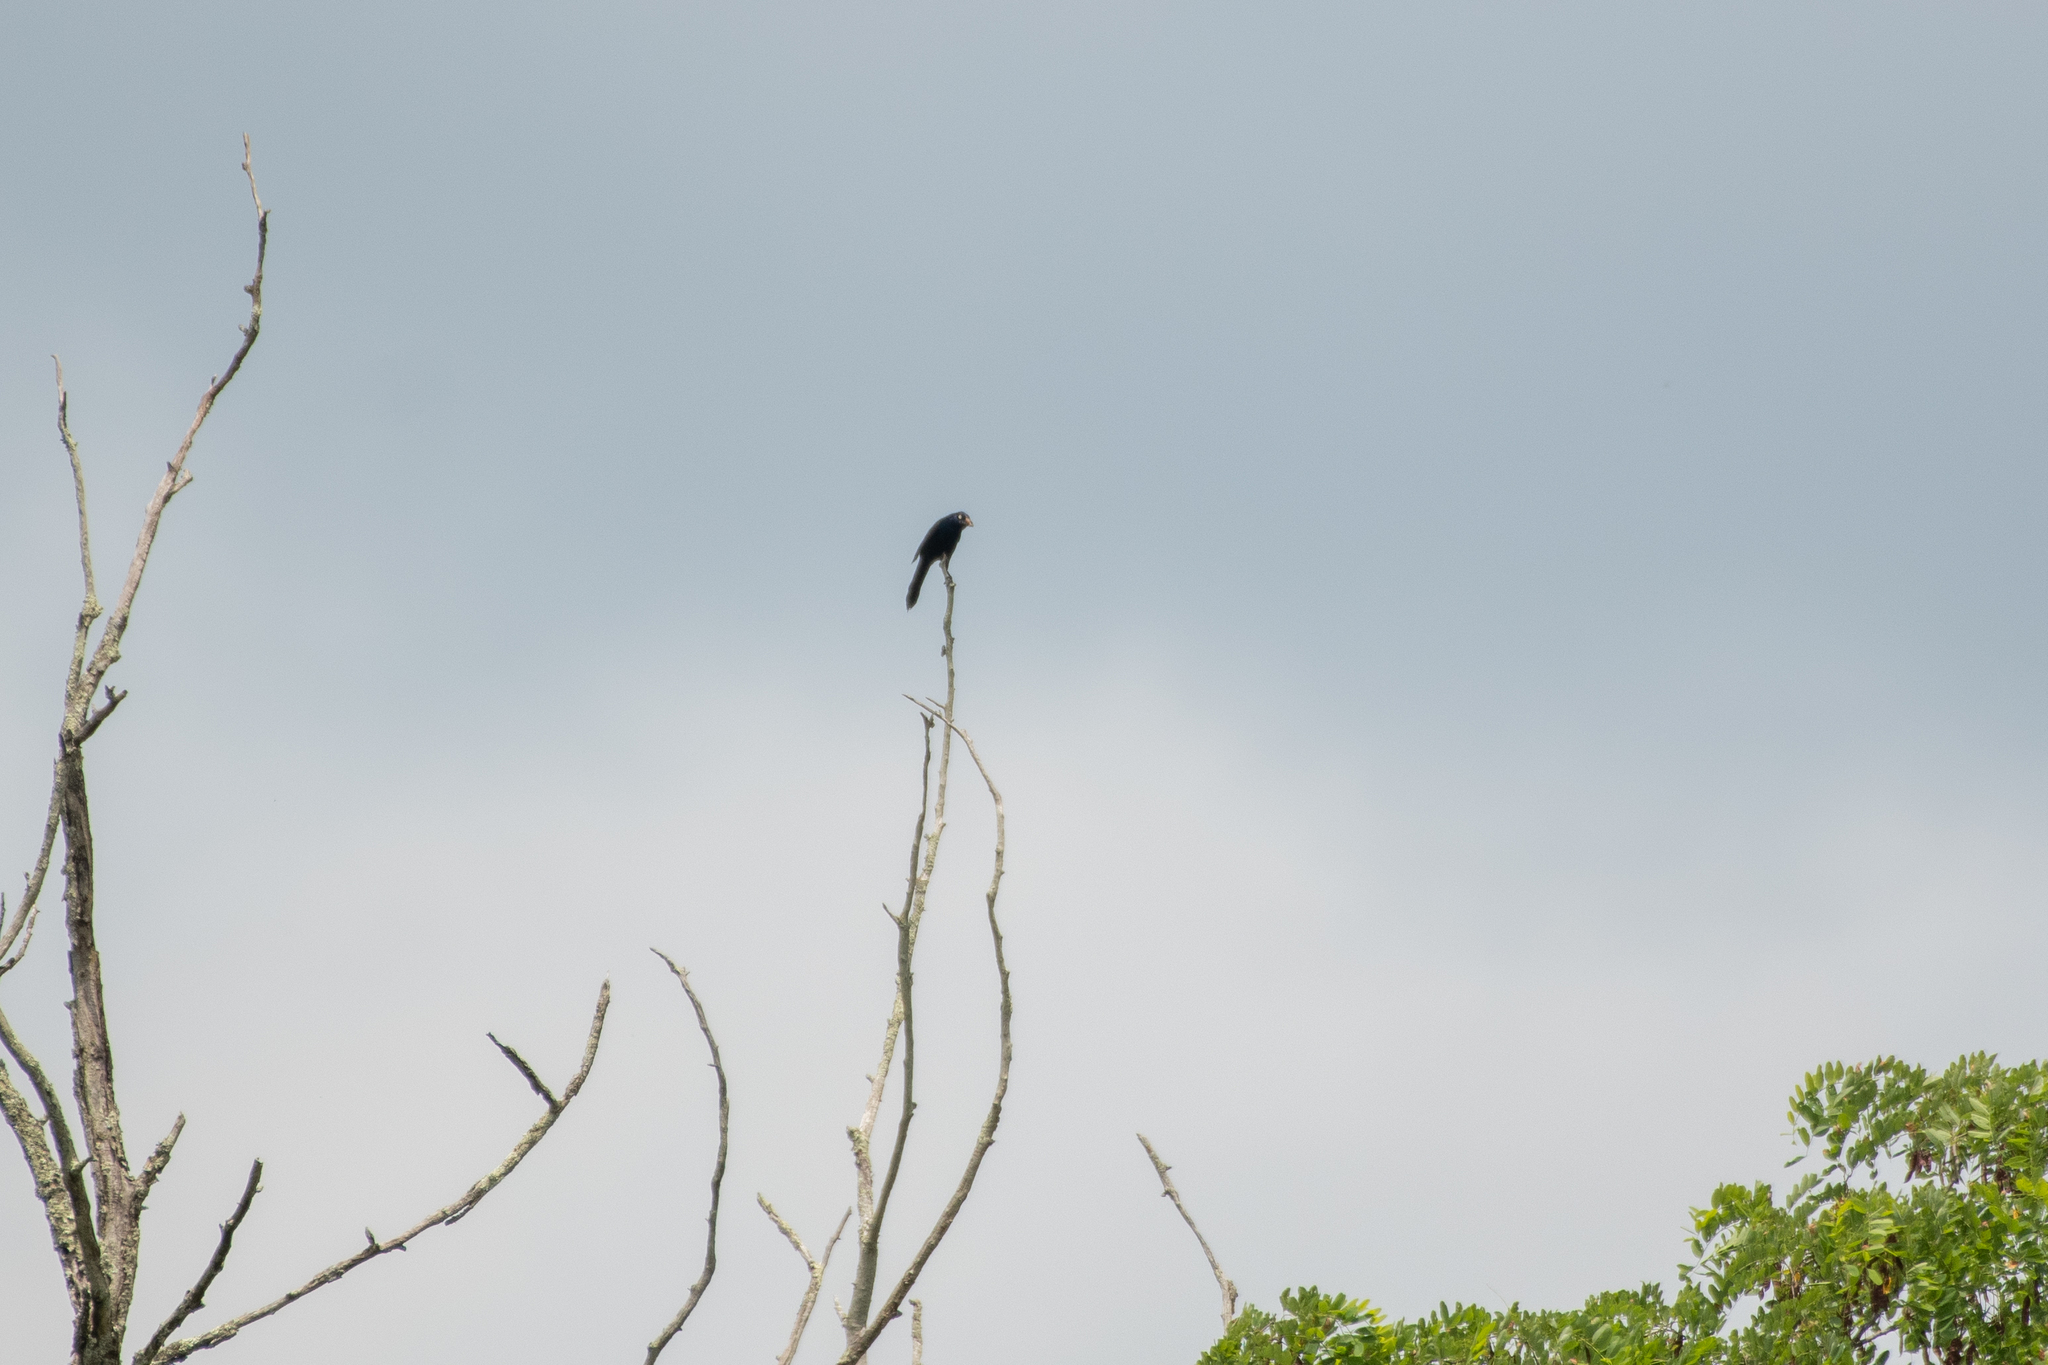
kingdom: Animalia
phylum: Chordata
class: Aves
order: Passeriformes
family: Icteridae
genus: Quiscalus
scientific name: Quiscalus quiscula
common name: Common grackle
